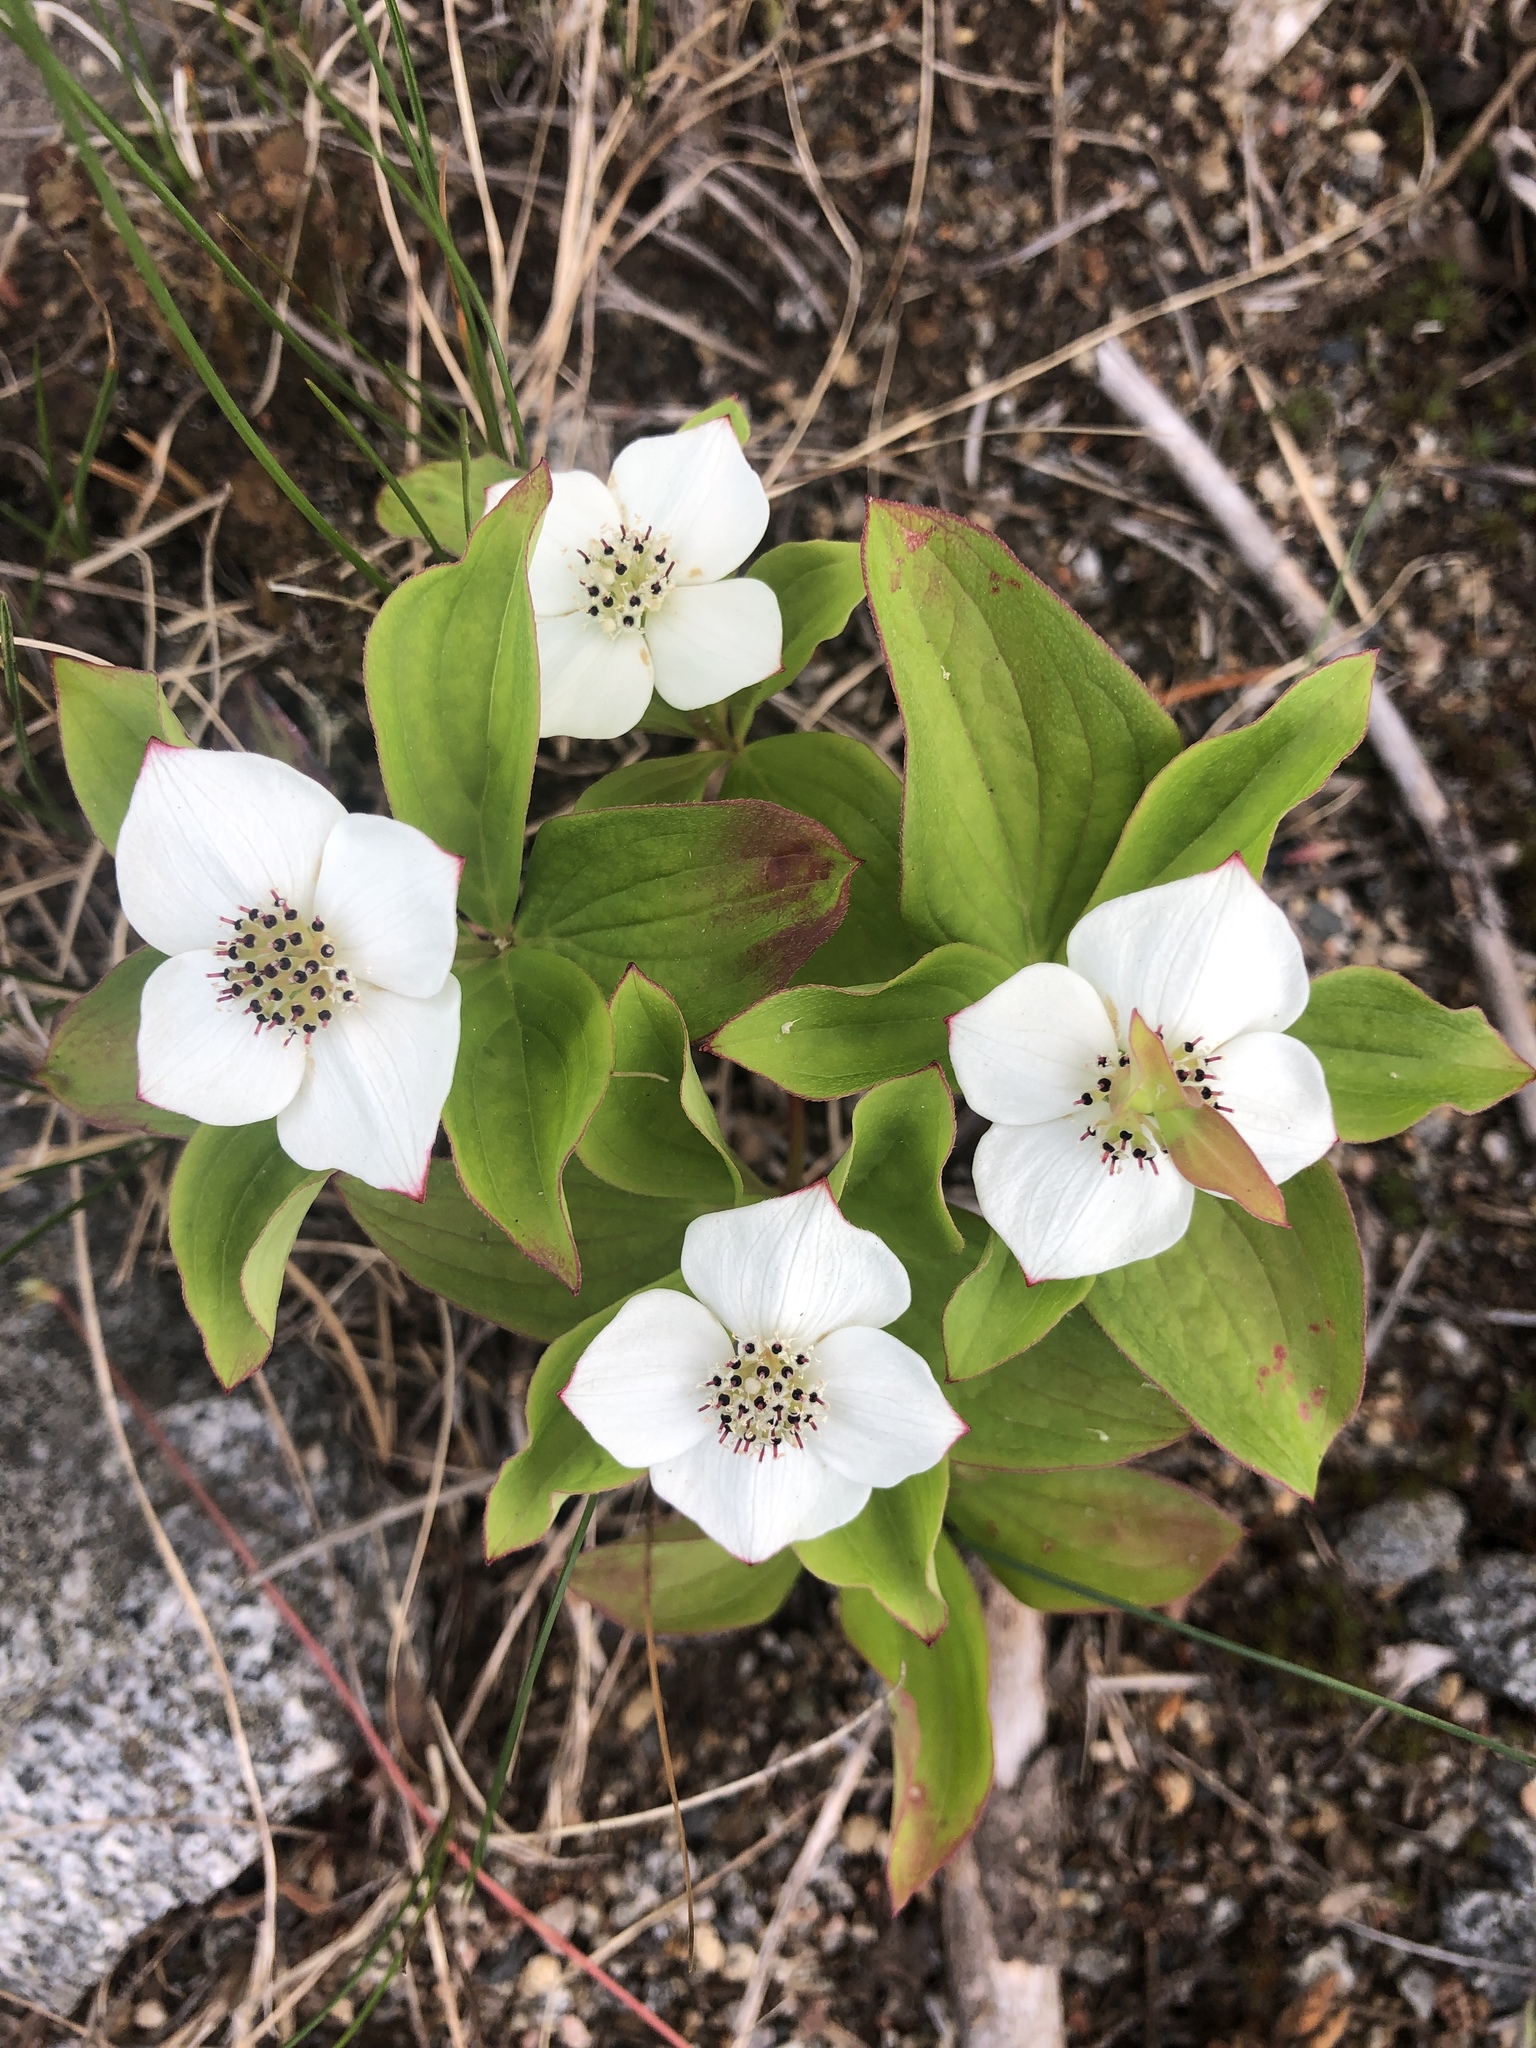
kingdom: Plantae
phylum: Tracheophyta
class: Magnoliopsida
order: Cornales
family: Cornaceae
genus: Cornus
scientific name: Cornus canadensis
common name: Creeping dogwood
